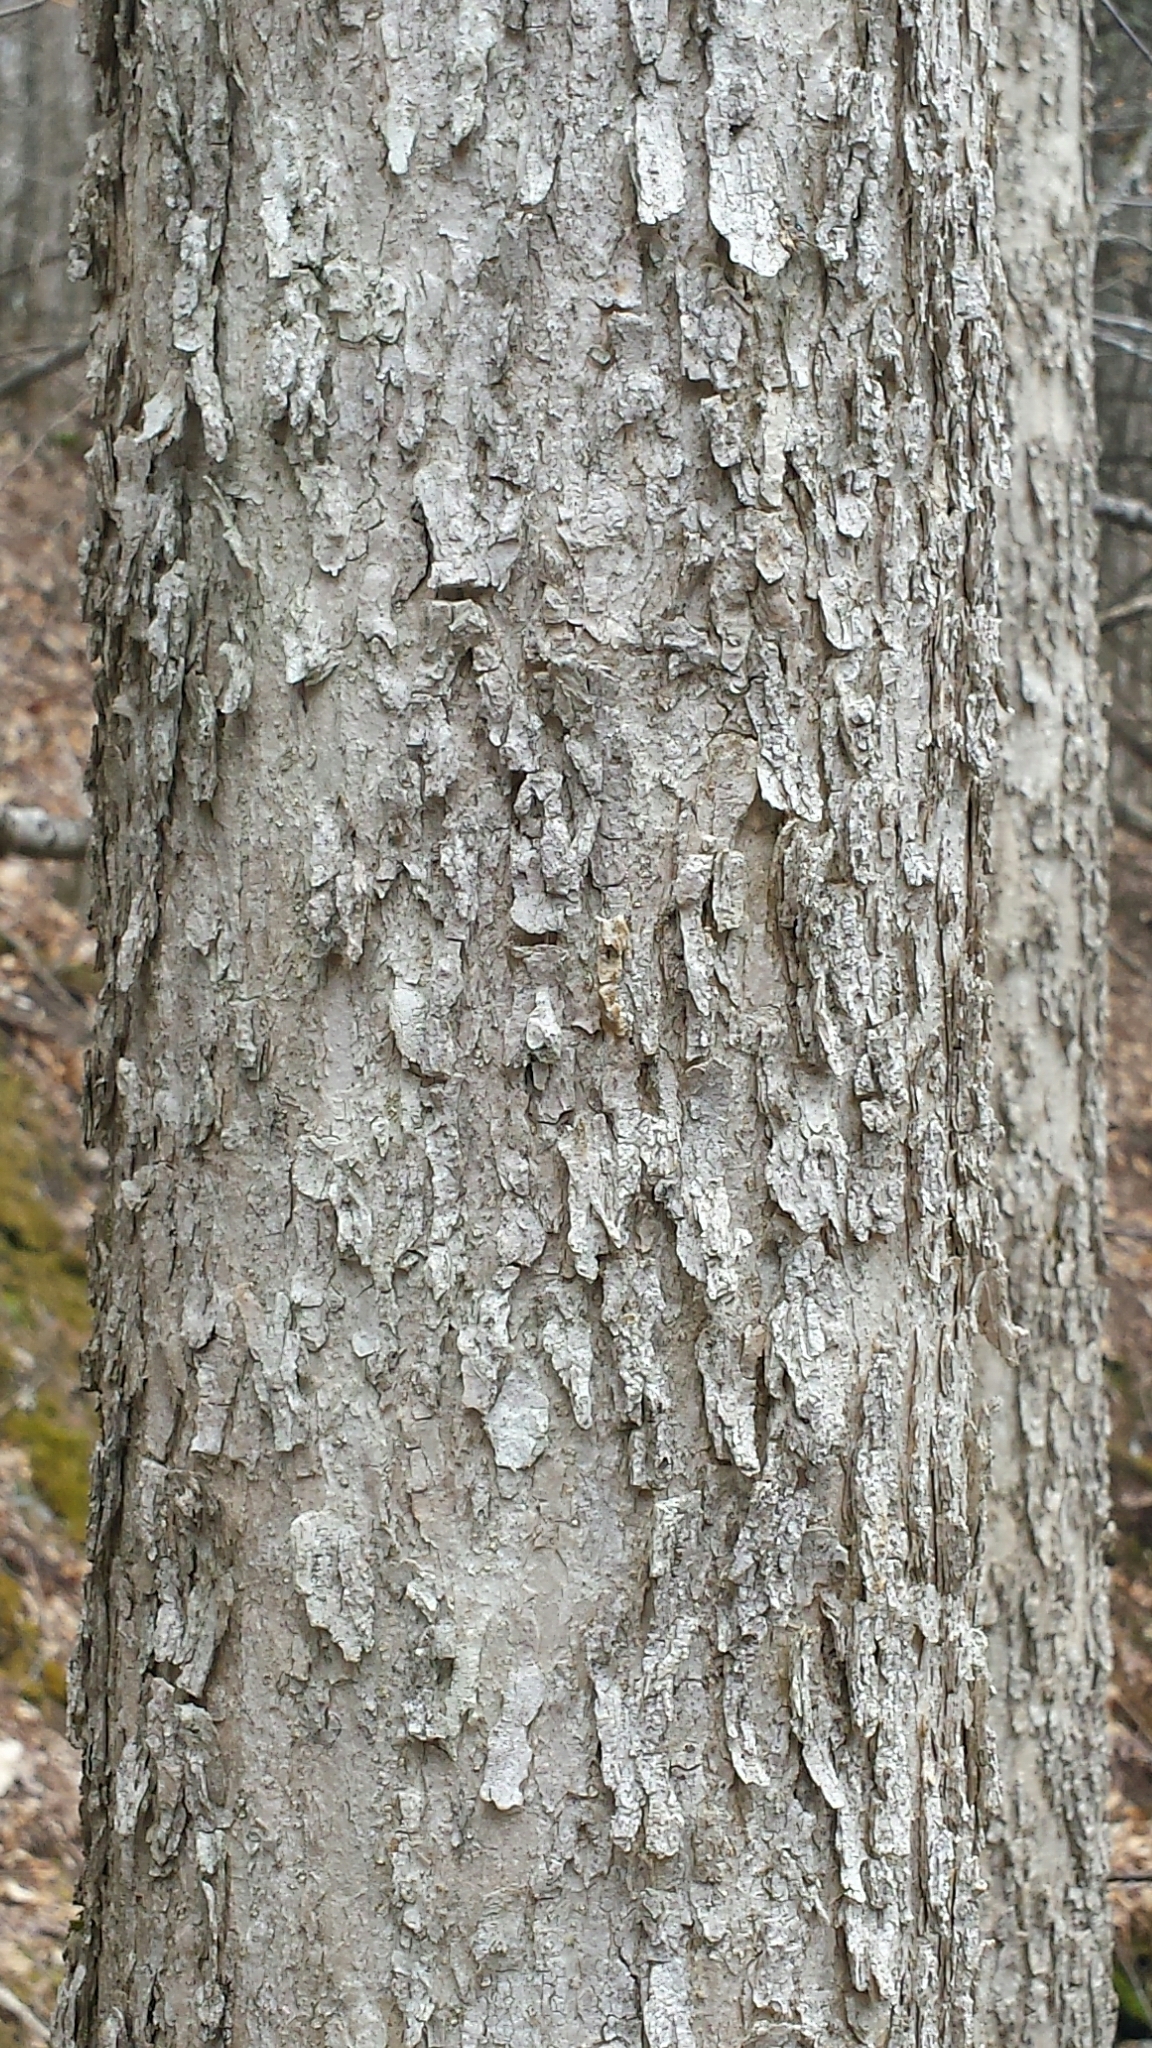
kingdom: Plantae
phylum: Tracheophyta
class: Magnoliopsida
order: Lamiales
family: Oleaceae
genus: Fraxinus
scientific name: Fraxinus nigra
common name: Black ash
